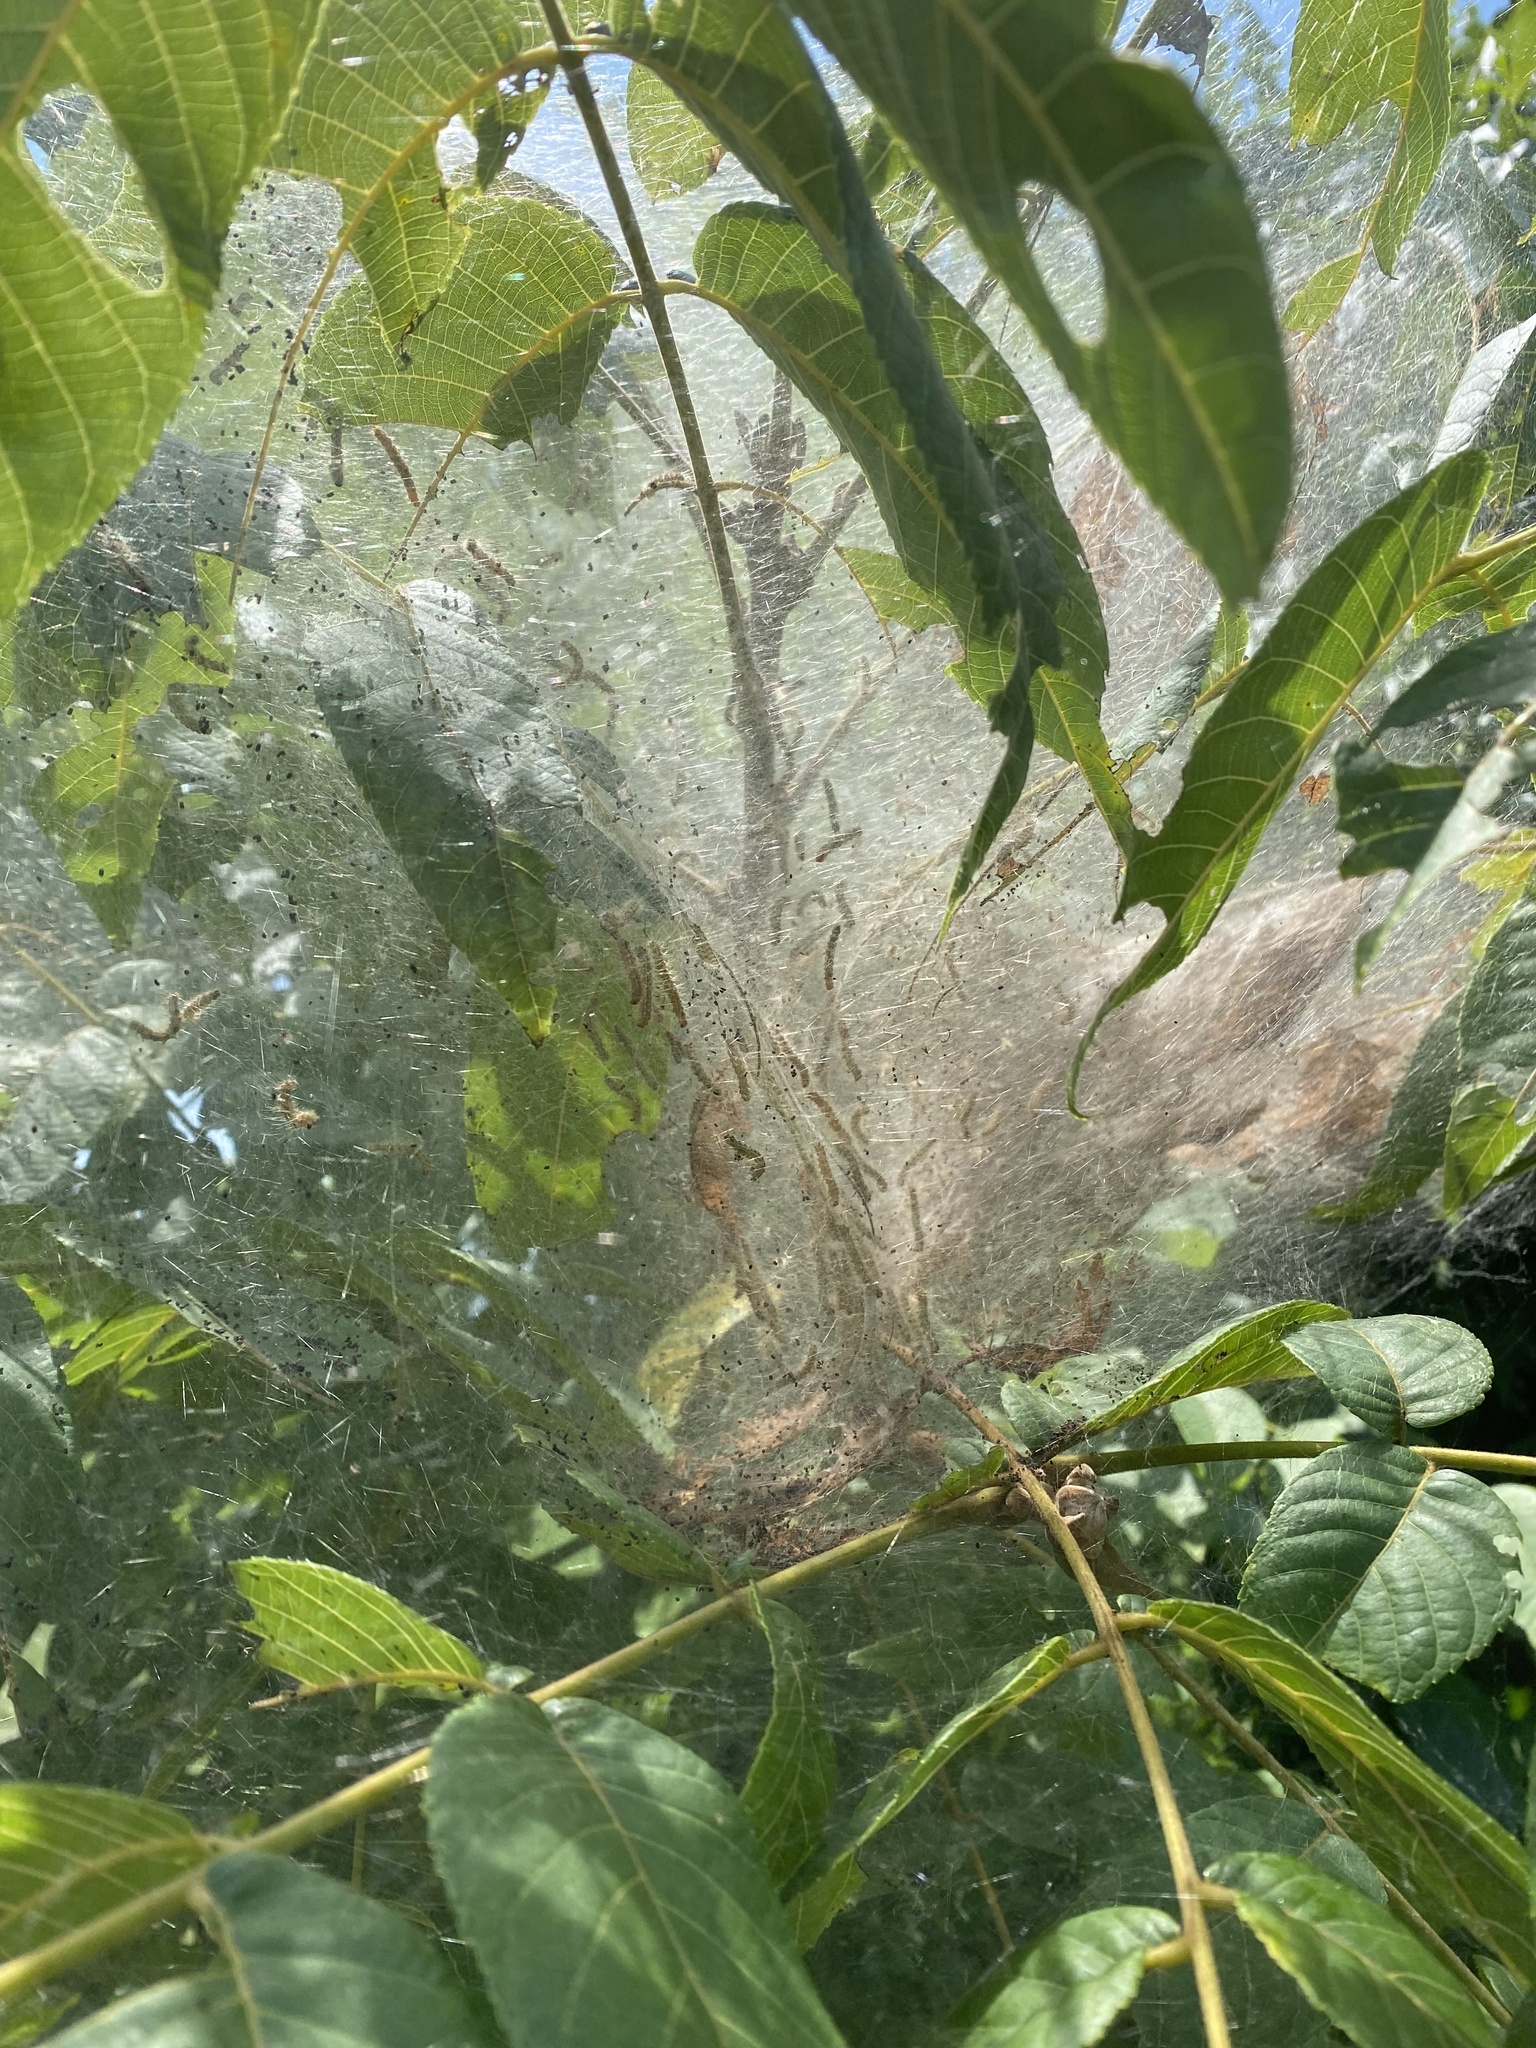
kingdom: Animalia
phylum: Arthropoda
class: Insecta
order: Lepidoptera
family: Erebidae
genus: Hyphantria
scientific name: Hyphantria cunea
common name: American white moth
